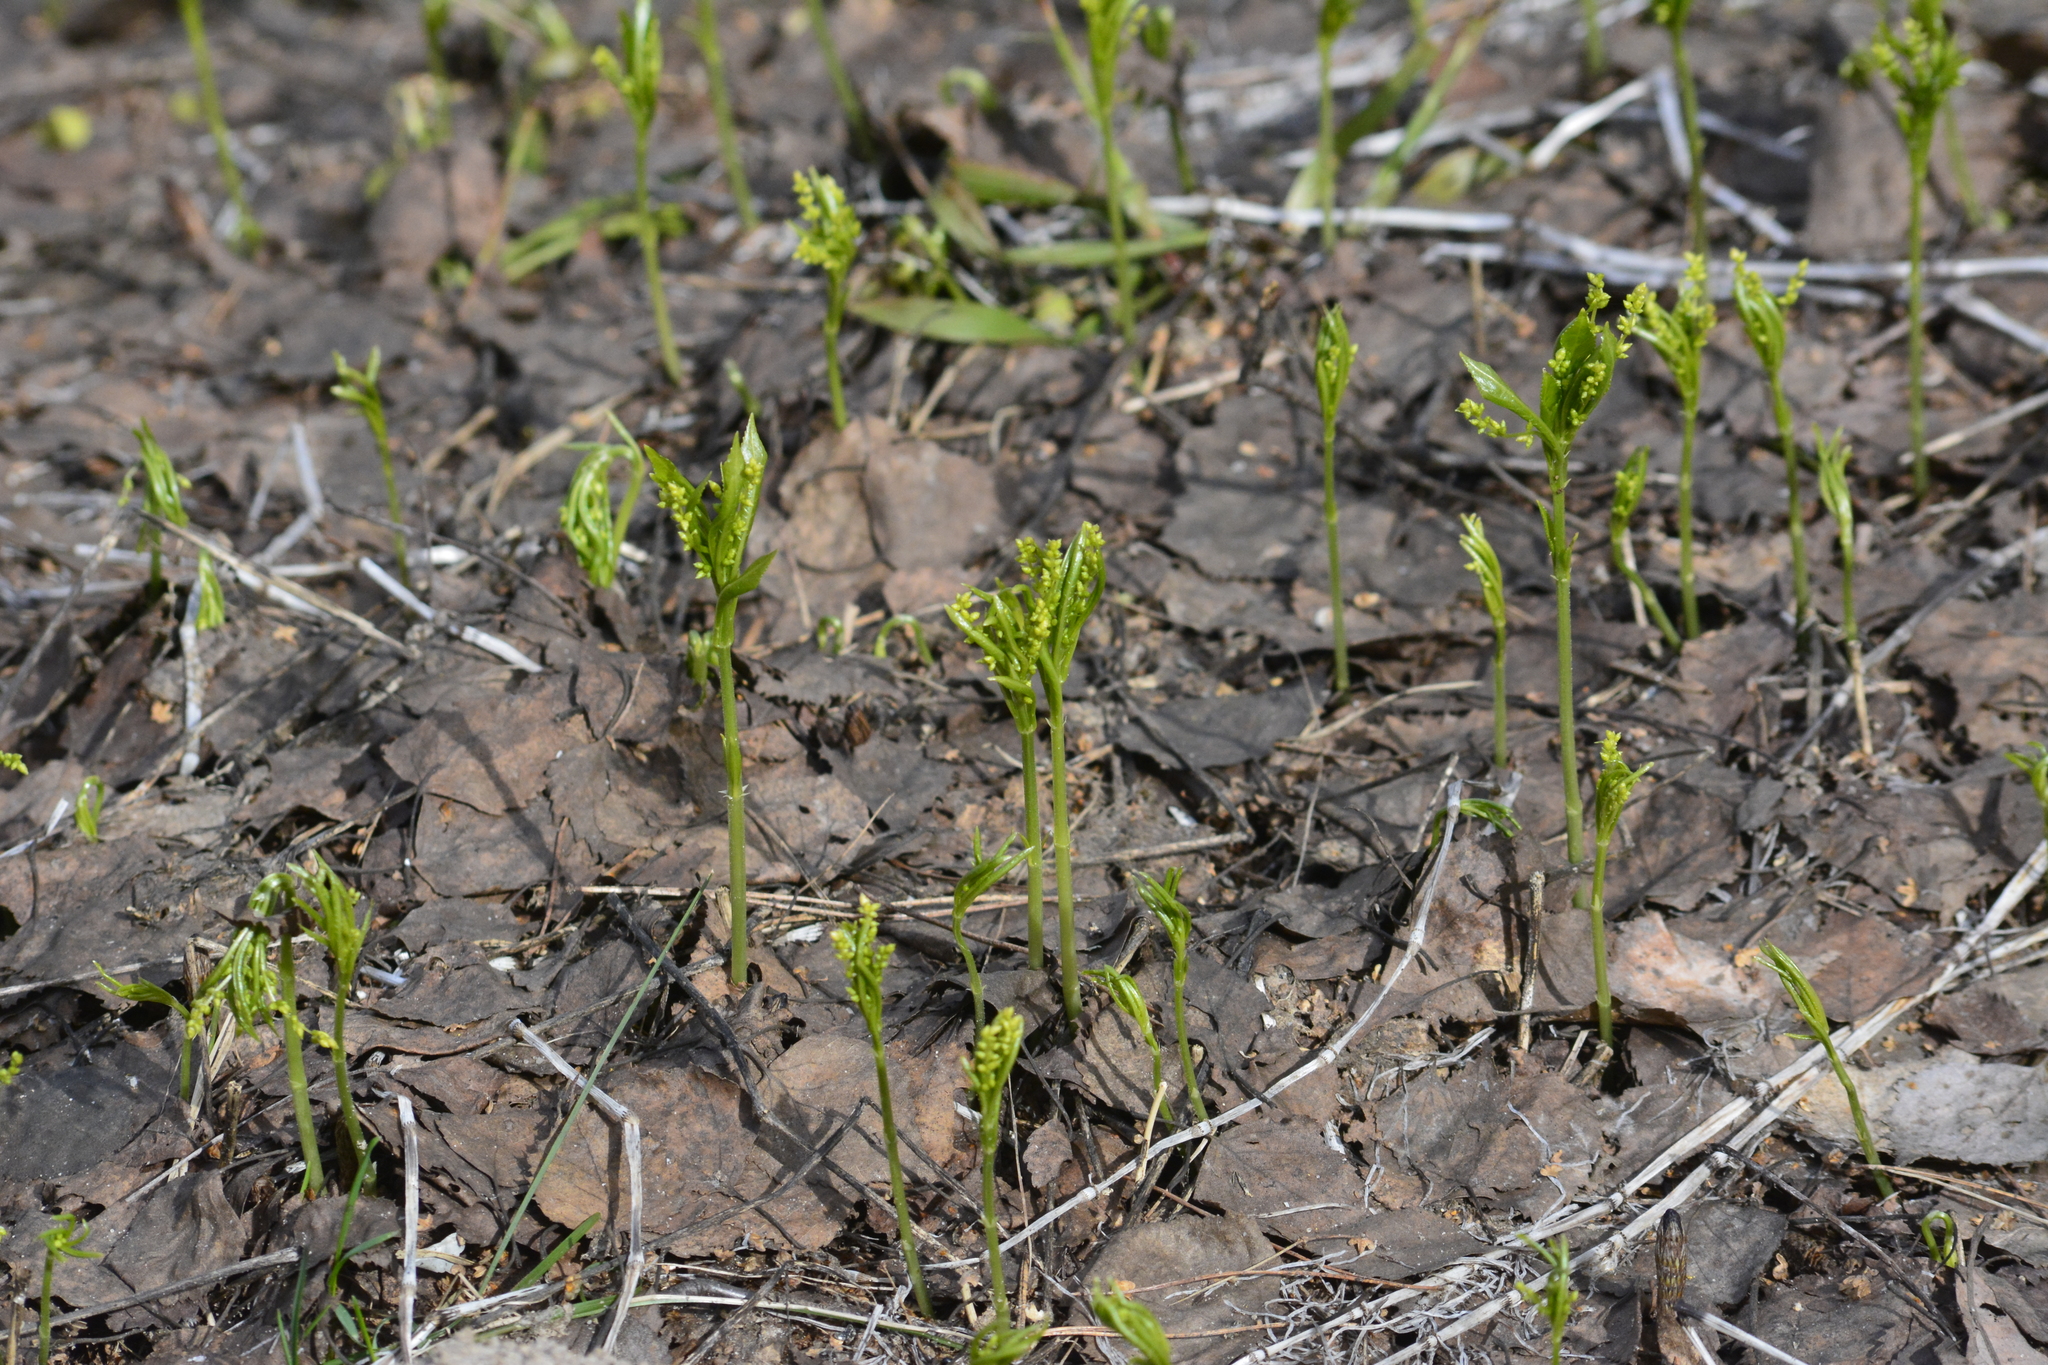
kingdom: Plantae
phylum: Tracheophyta
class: Magnoliopsida
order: Malpighiales
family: Euphorbiaceae
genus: Mercurialis
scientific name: Mercurialis perennis
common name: Dog mercury
